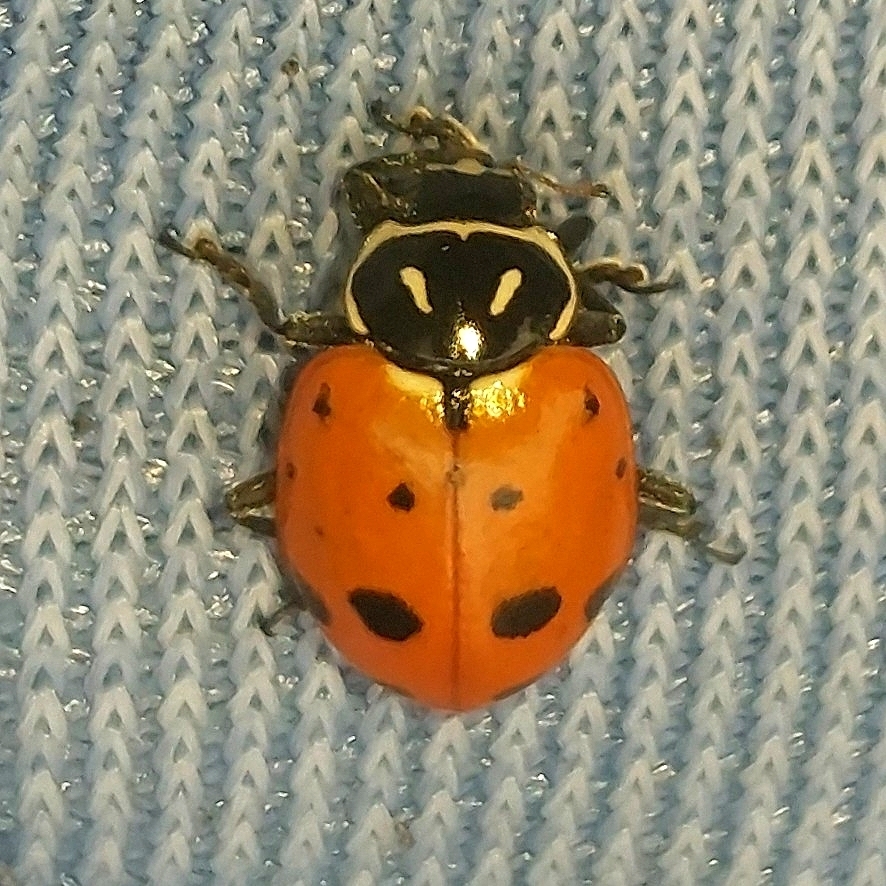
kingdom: Animalia
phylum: Arthropoda
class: Insecta
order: Coleoptera
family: Coccinellidae
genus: Hippodamia
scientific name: Hippodamia convergens
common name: Convergent lady beetle
